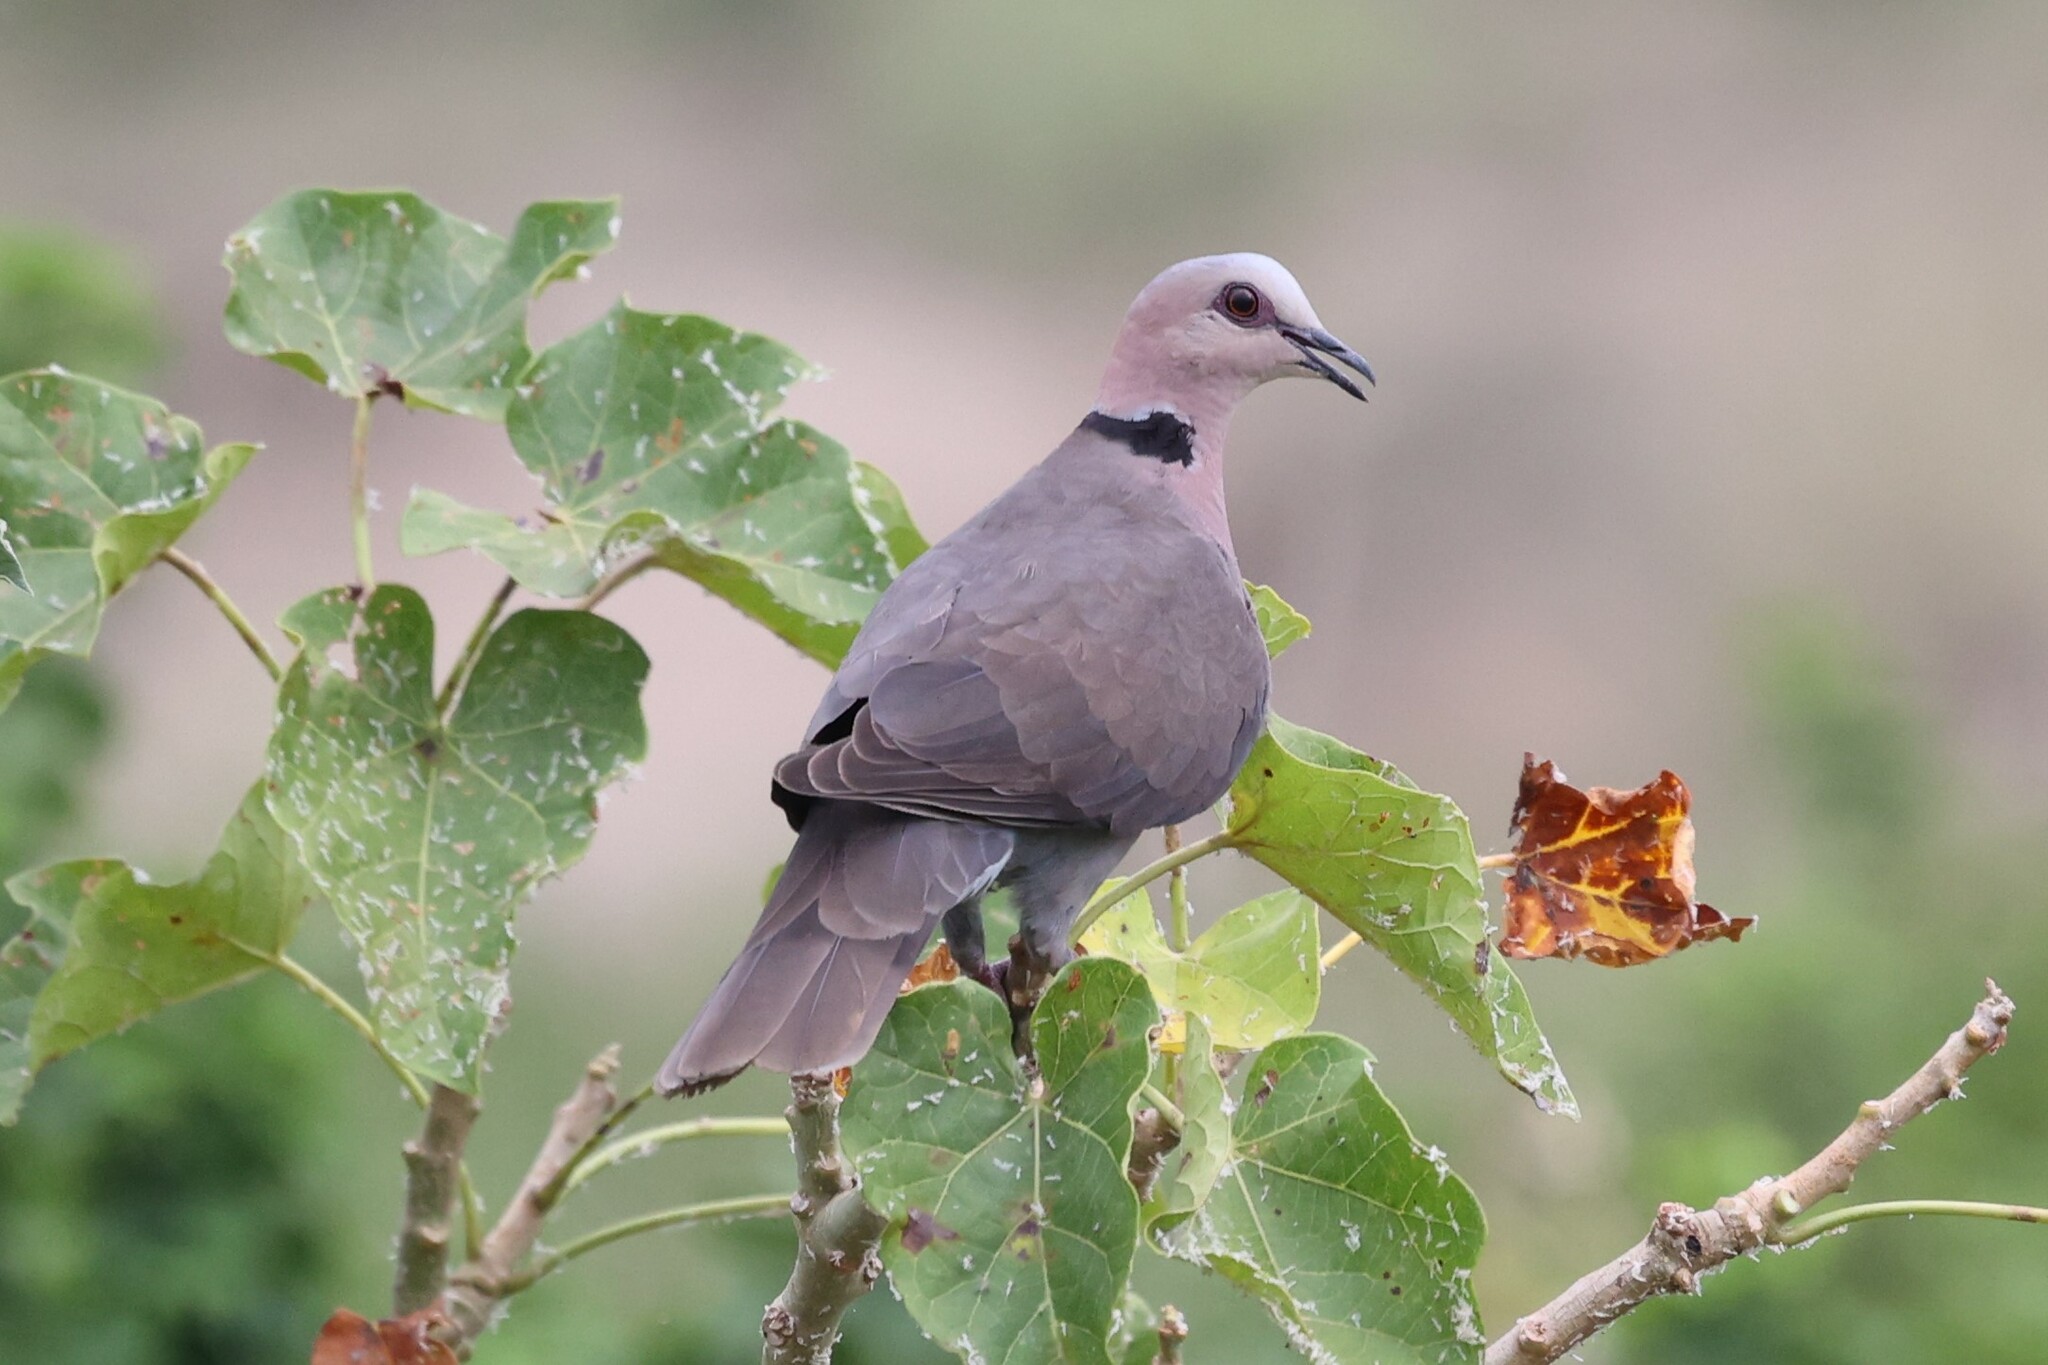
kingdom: Animalia
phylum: Chordata
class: Aves
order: Columbiformes
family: Columbidae
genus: Streptopelia
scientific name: Streptopelia semitorquata
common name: Red-eyed dove
